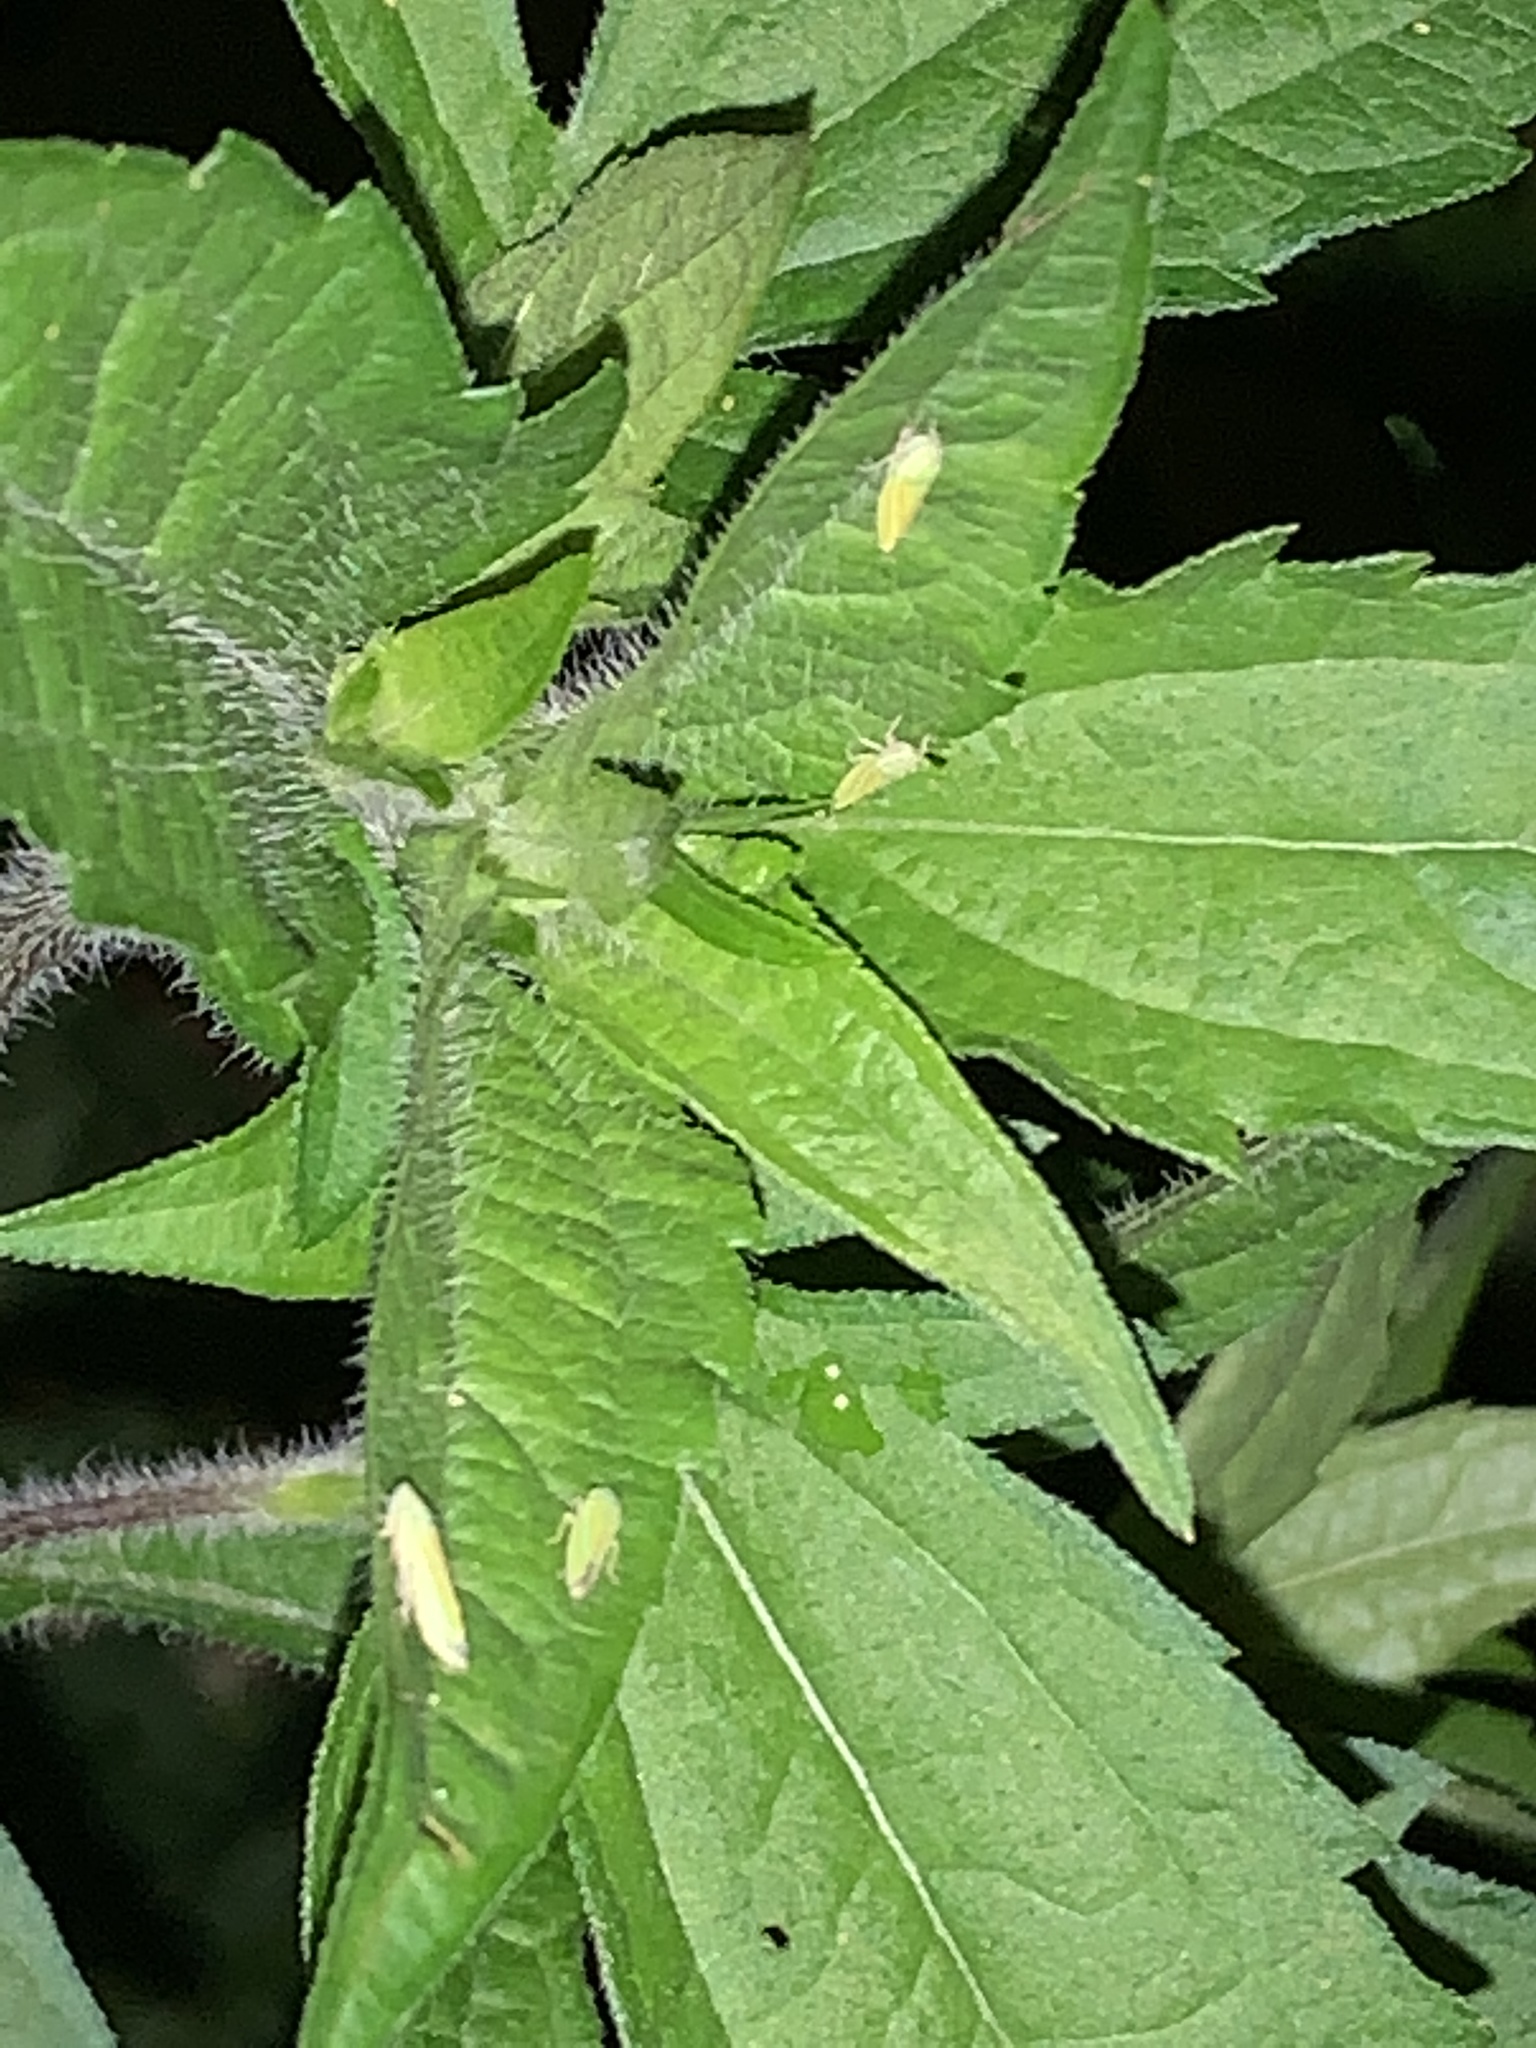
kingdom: Animalia
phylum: Arthropoda
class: Insecta
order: Hemiptera
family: Cicadellidae
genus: Graphocephala
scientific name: Graphocephala versuta
